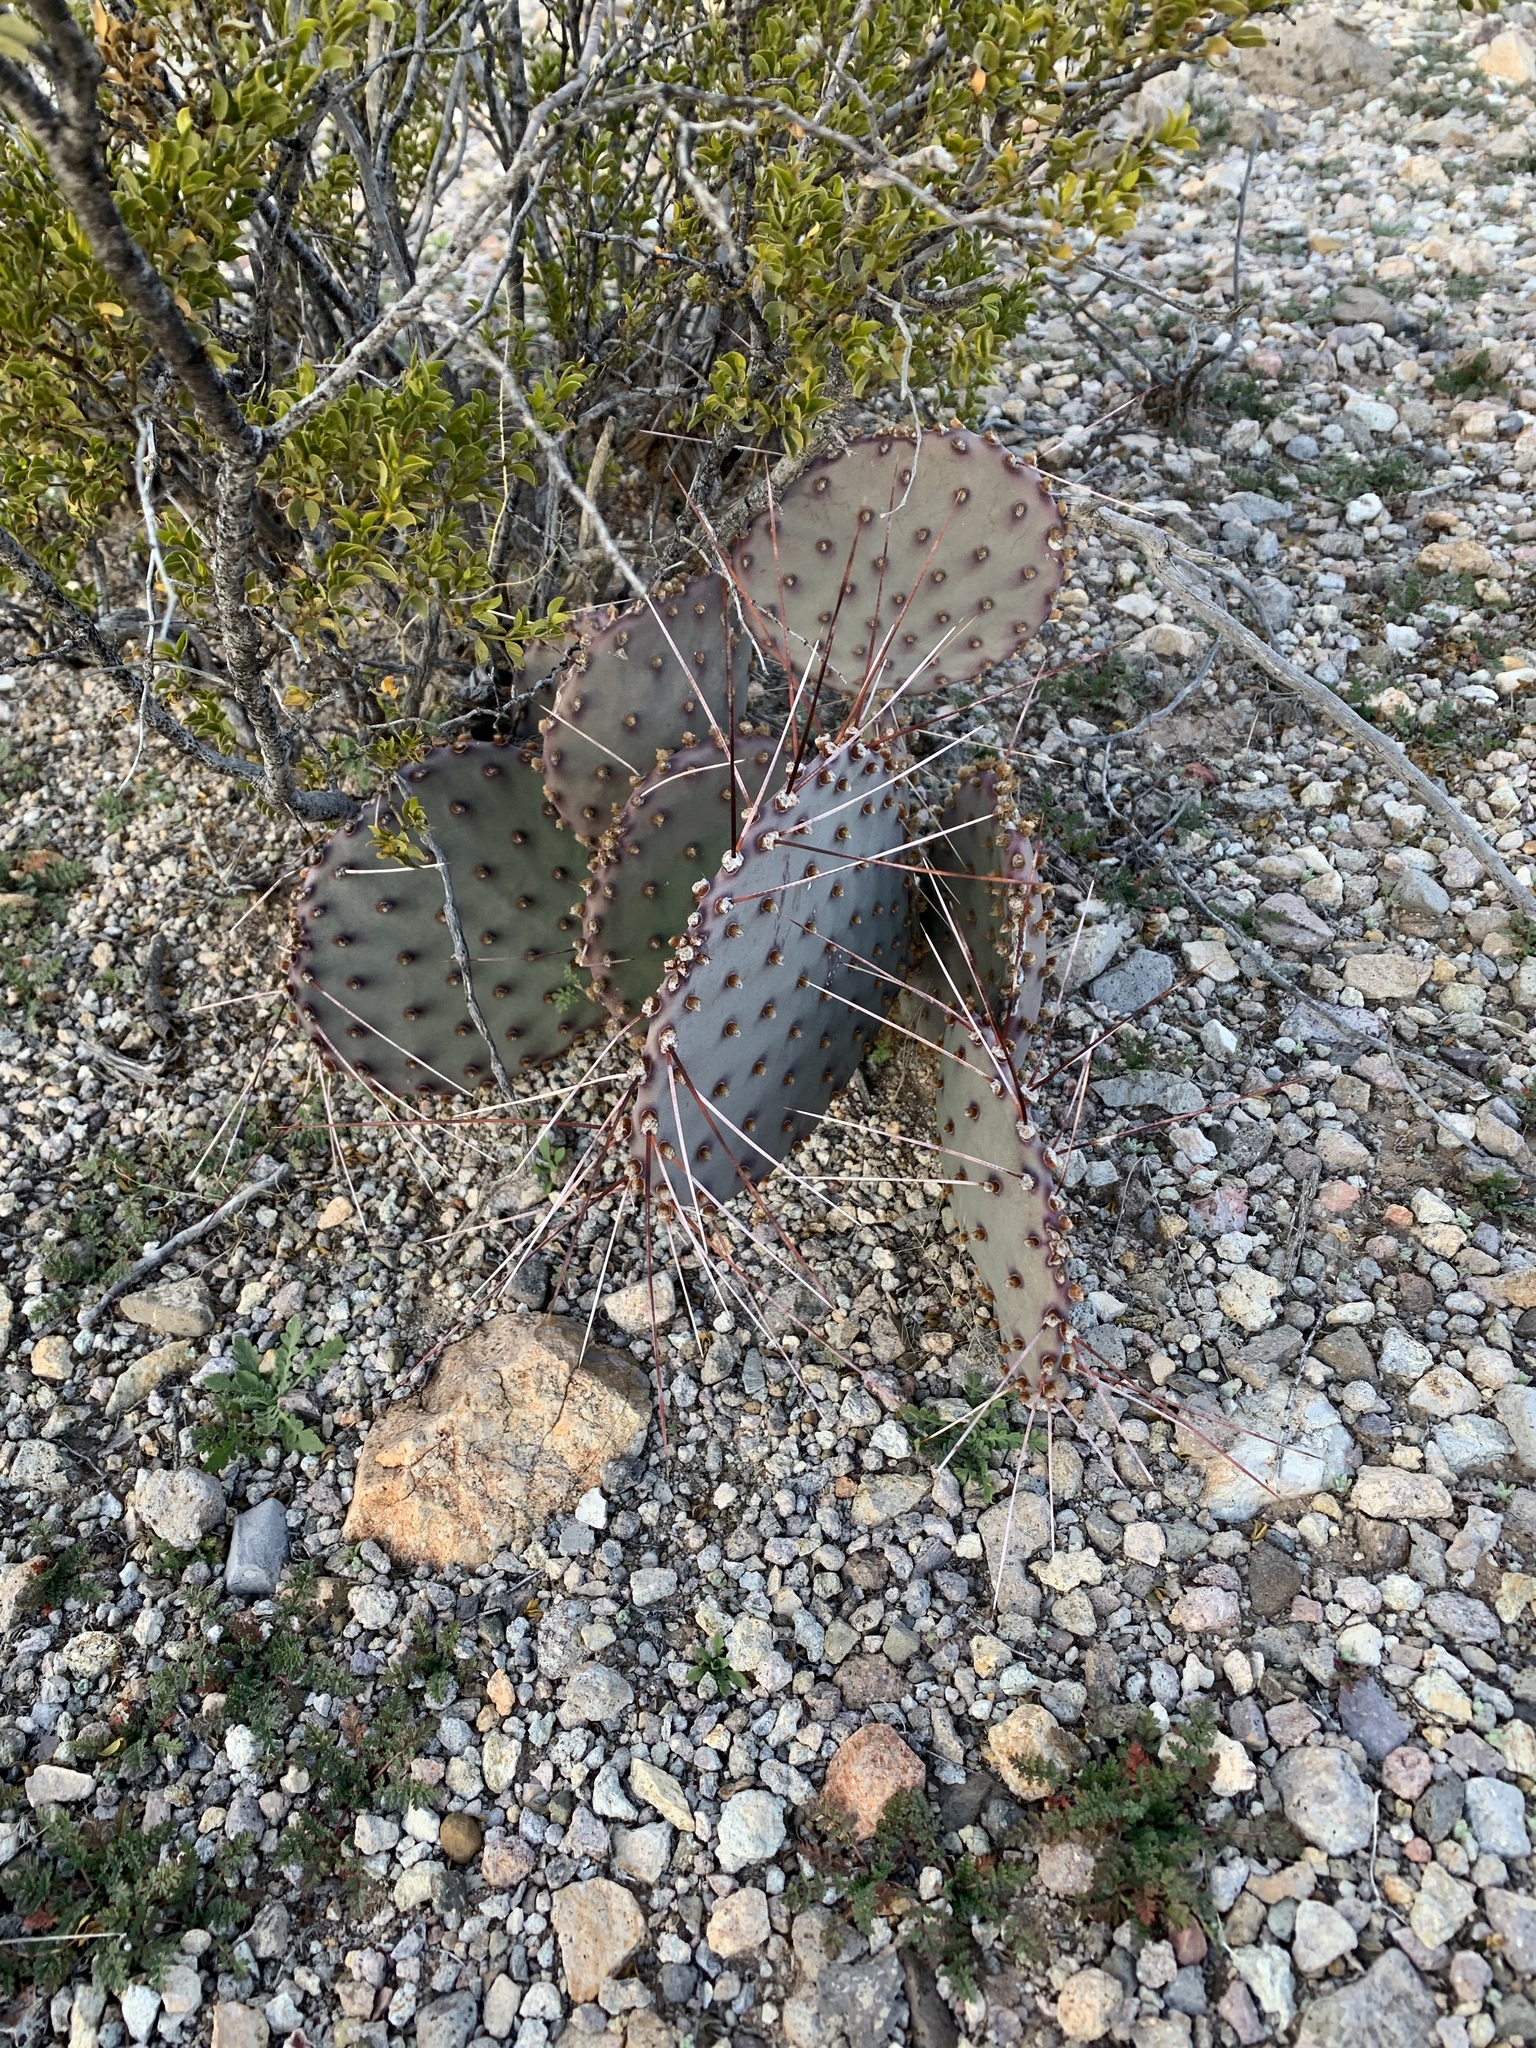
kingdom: Plantae
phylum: Tracheophyta
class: Magnoliopsida
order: Caryophyllales
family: Cactaceae
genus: Opuntia
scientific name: Opuntia macrocentra
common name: Purple prickly-pear
